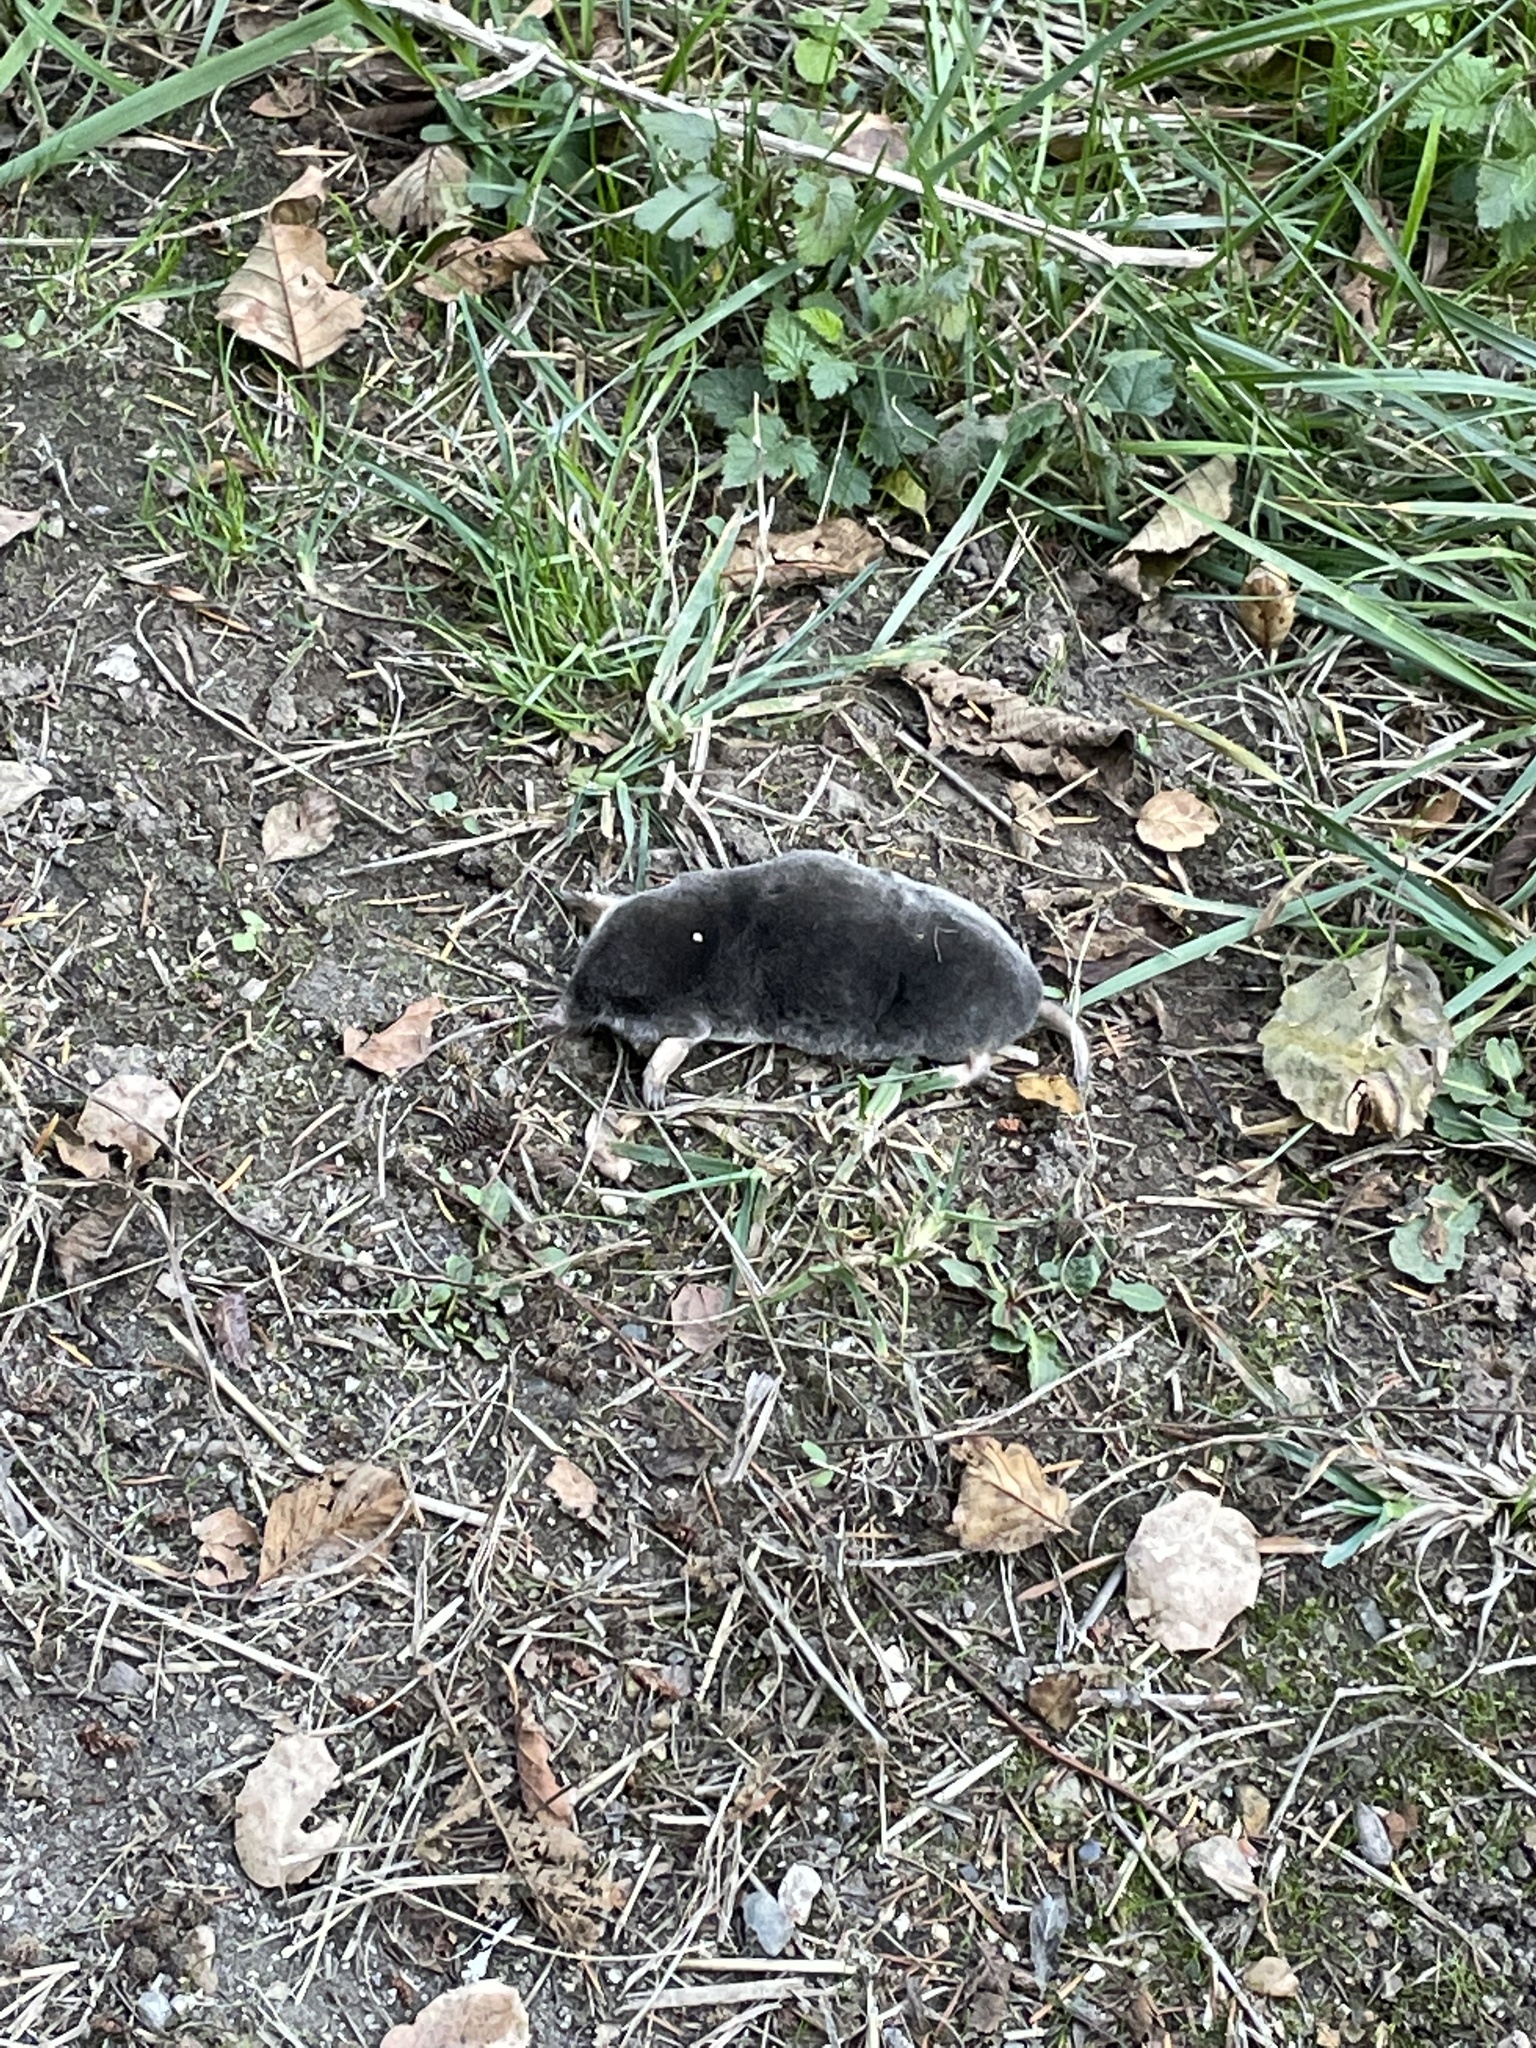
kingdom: Animalia
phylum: Chordata
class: Mammalia
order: Soricomorpha
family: Talpidae
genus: Scapanus
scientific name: Scapanus latimanus
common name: Broad-footed mole
